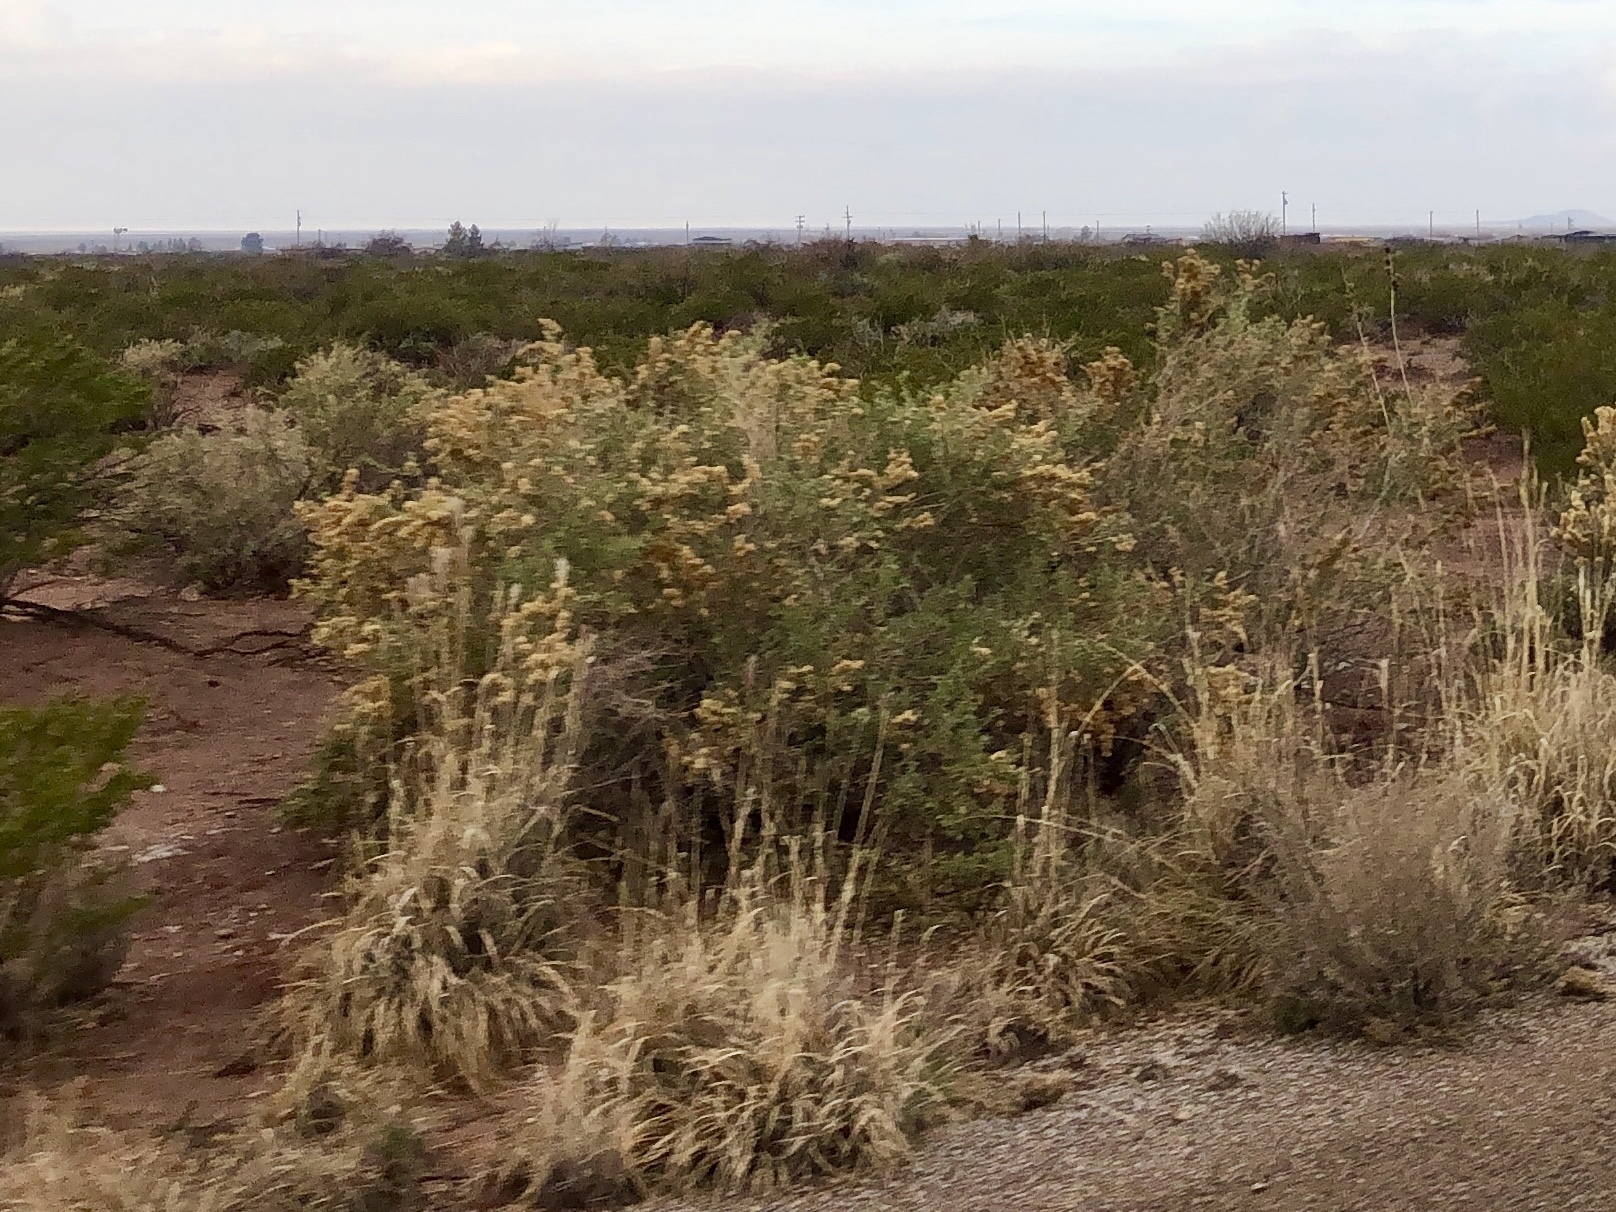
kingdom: Plantae
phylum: Tracheophyta
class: Magnoliopsida
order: Caryophyllales
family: Amaranthaceae
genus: Atriplex
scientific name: Atriplex canescens
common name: Four-wing saltbush
